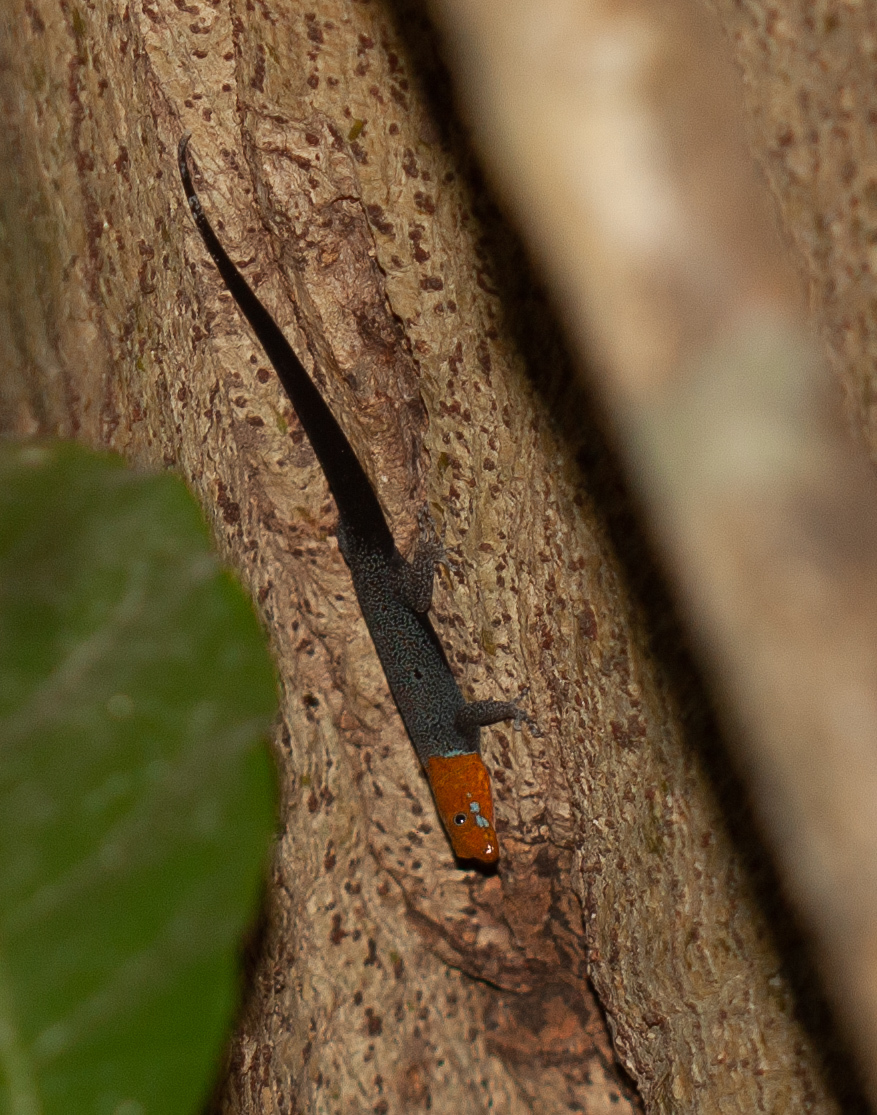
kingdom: Animalia
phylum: Chordata
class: Squamata
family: Sphaerodactylidae
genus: Gonatodes
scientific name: Gonatodes albogularis
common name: Yellow-headed gecko
